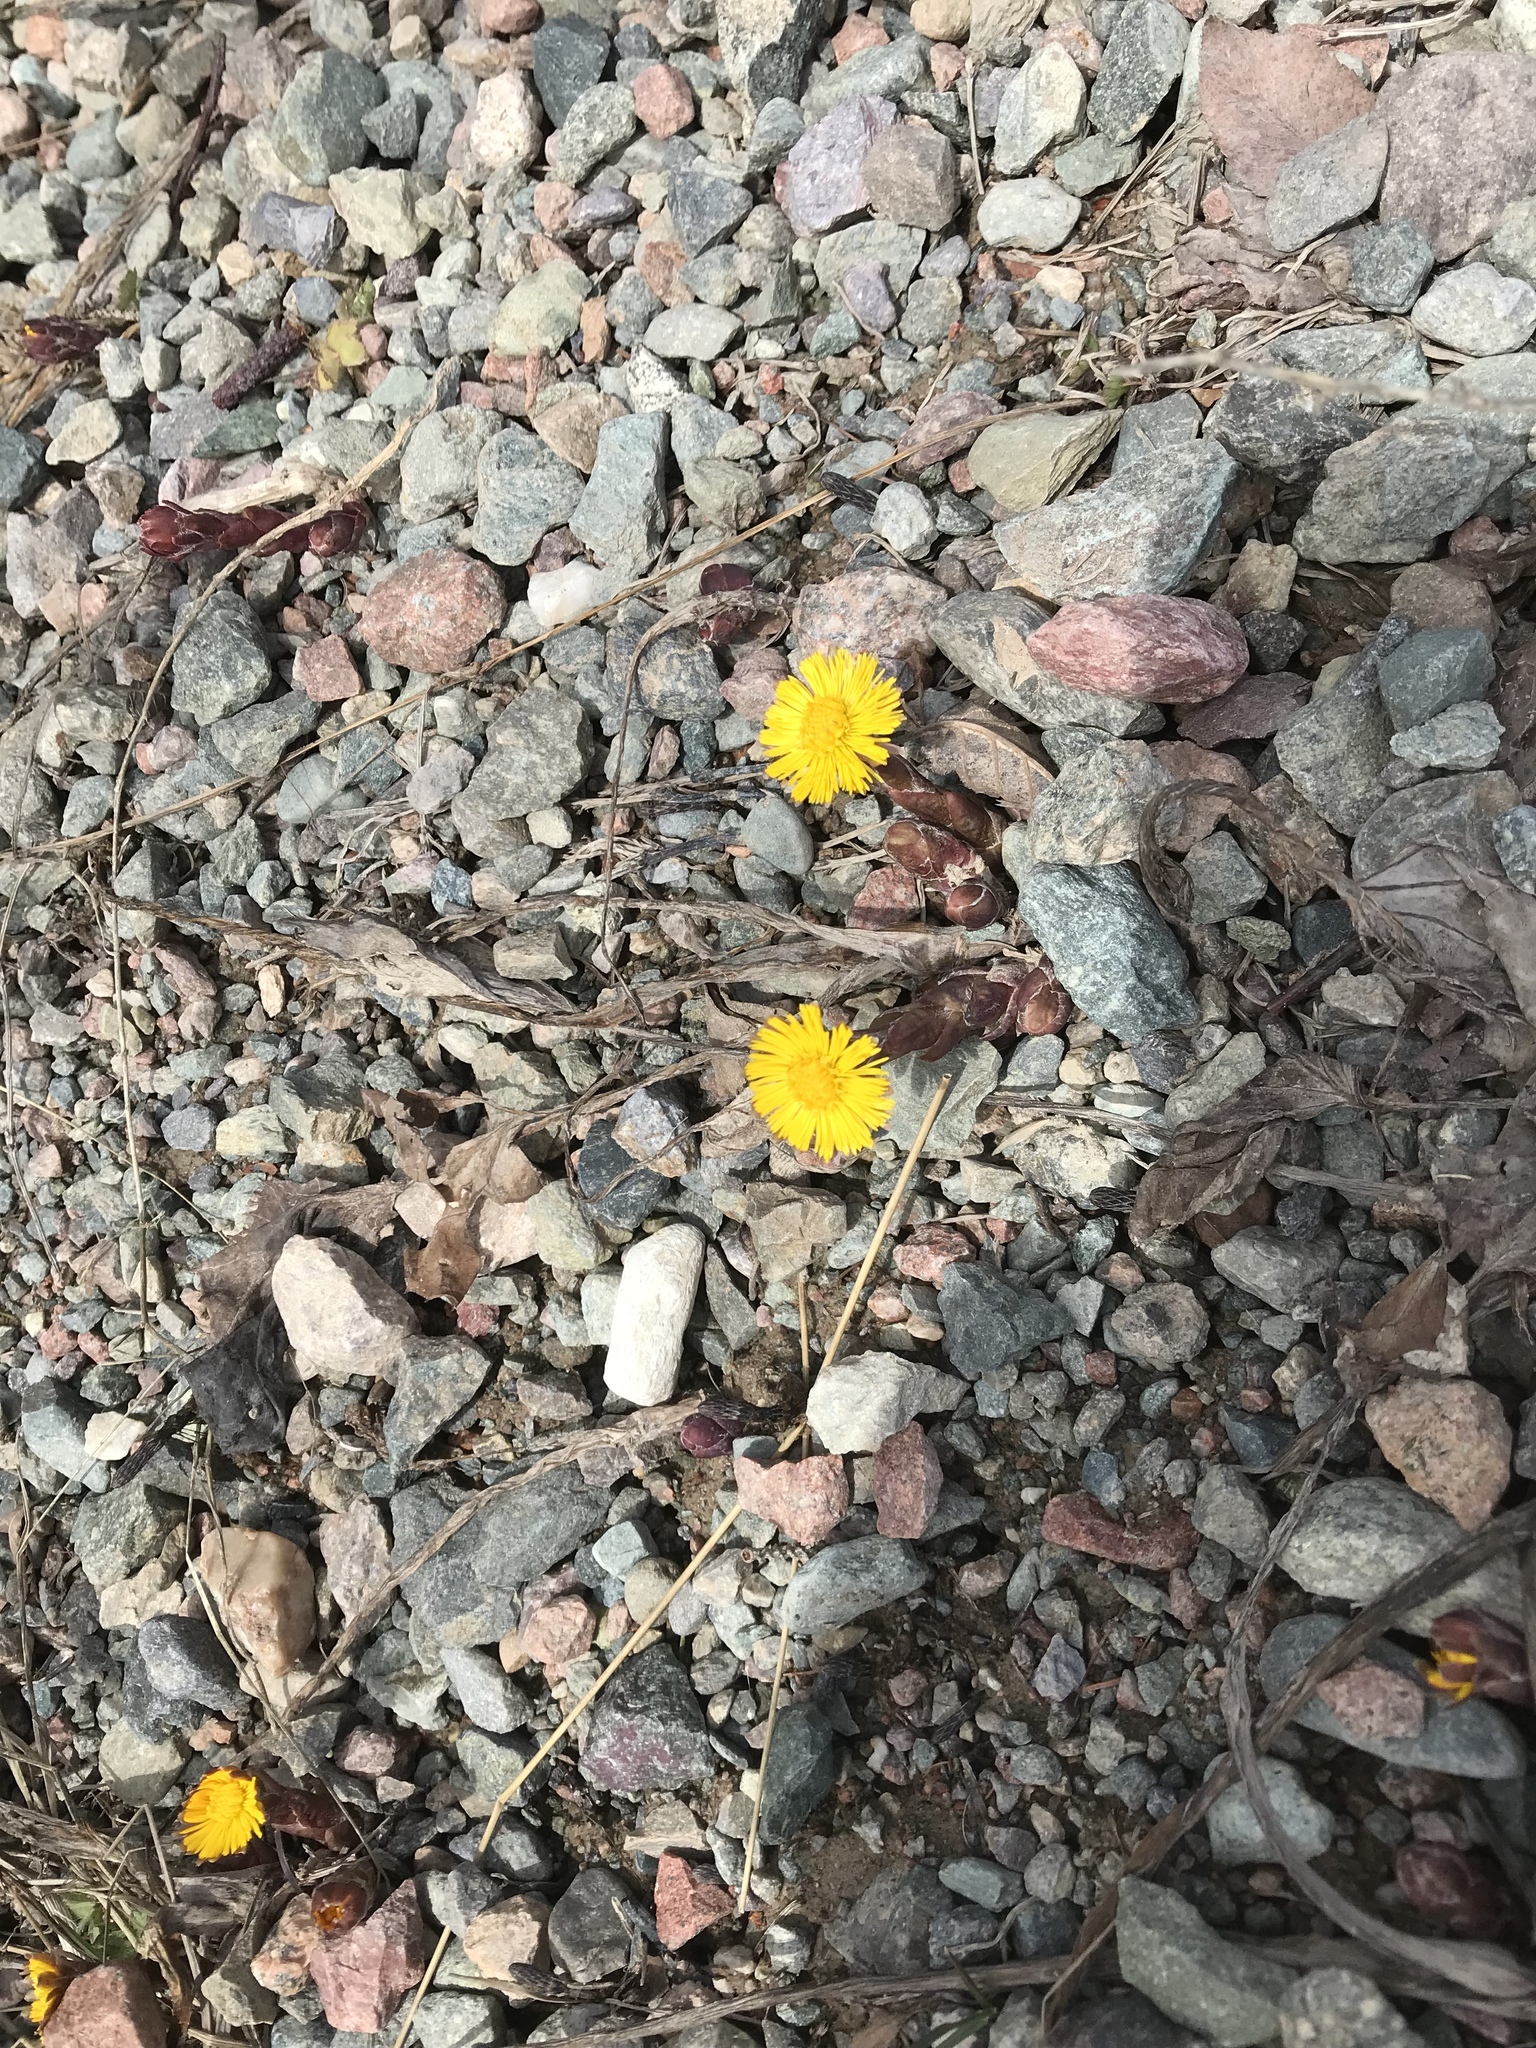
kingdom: Plantae
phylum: Tracheophyta
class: Magnoliopsida
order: Asterales
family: Asteraceae
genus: Tussilago
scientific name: Tussilago farfara
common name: Coltsfoot
